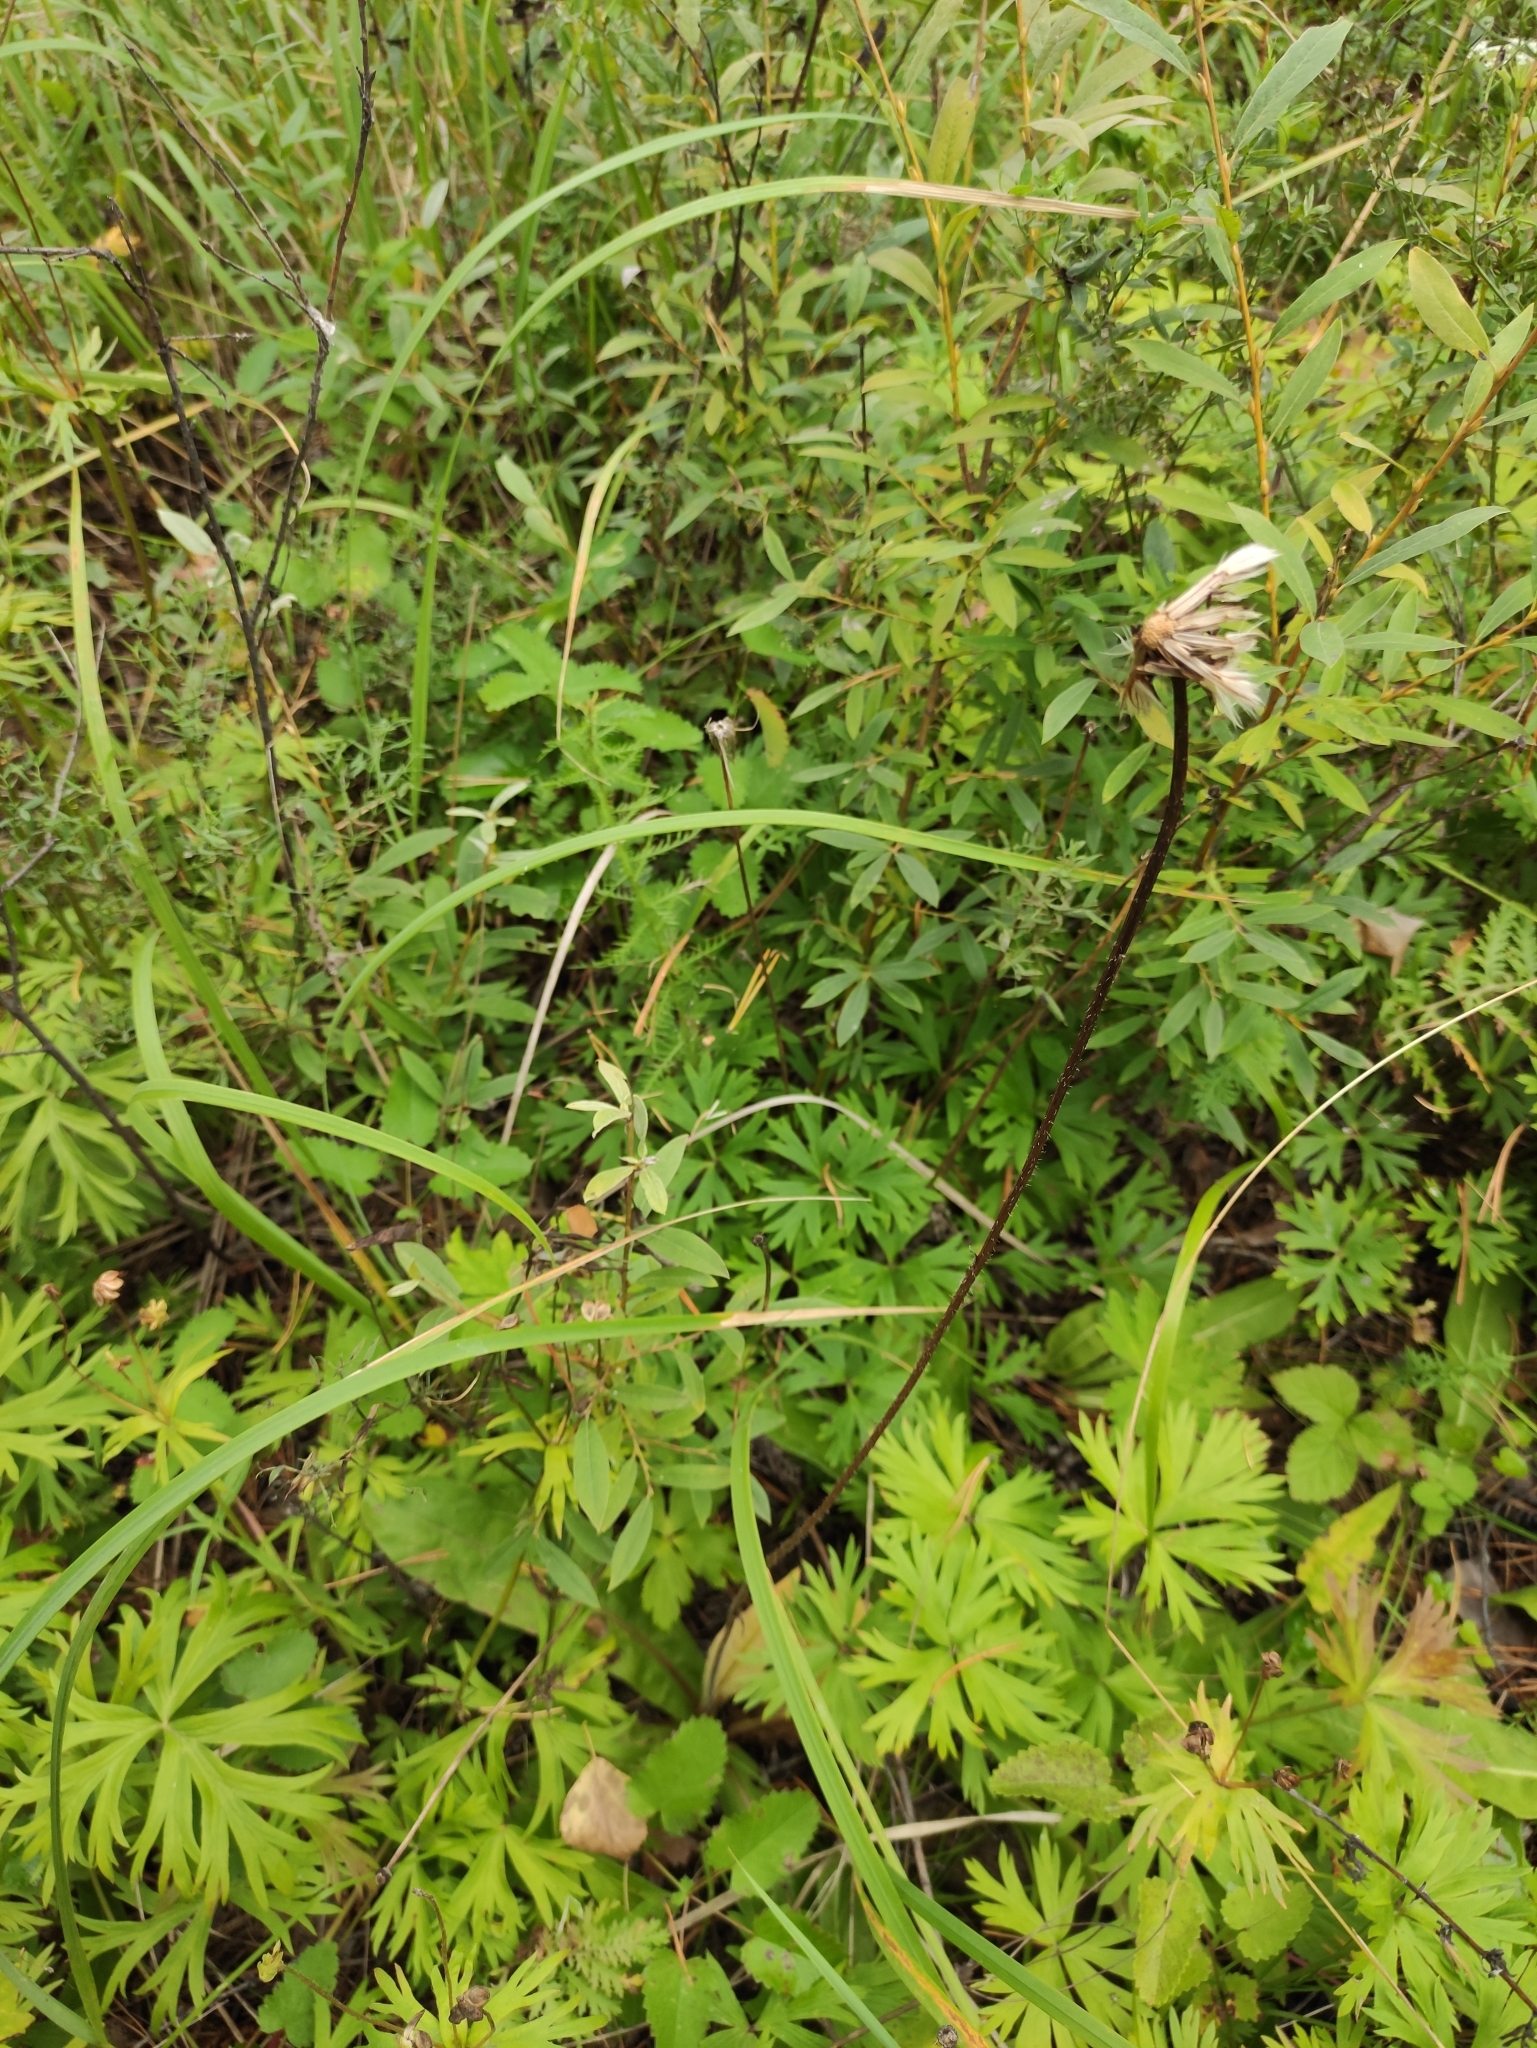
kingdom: Plantae
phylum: Tracheophyta
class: Magnoliopsida
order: Asterales
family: Asteraceae
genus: Trommsdorffia
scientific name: Trommsdorffia maculata
